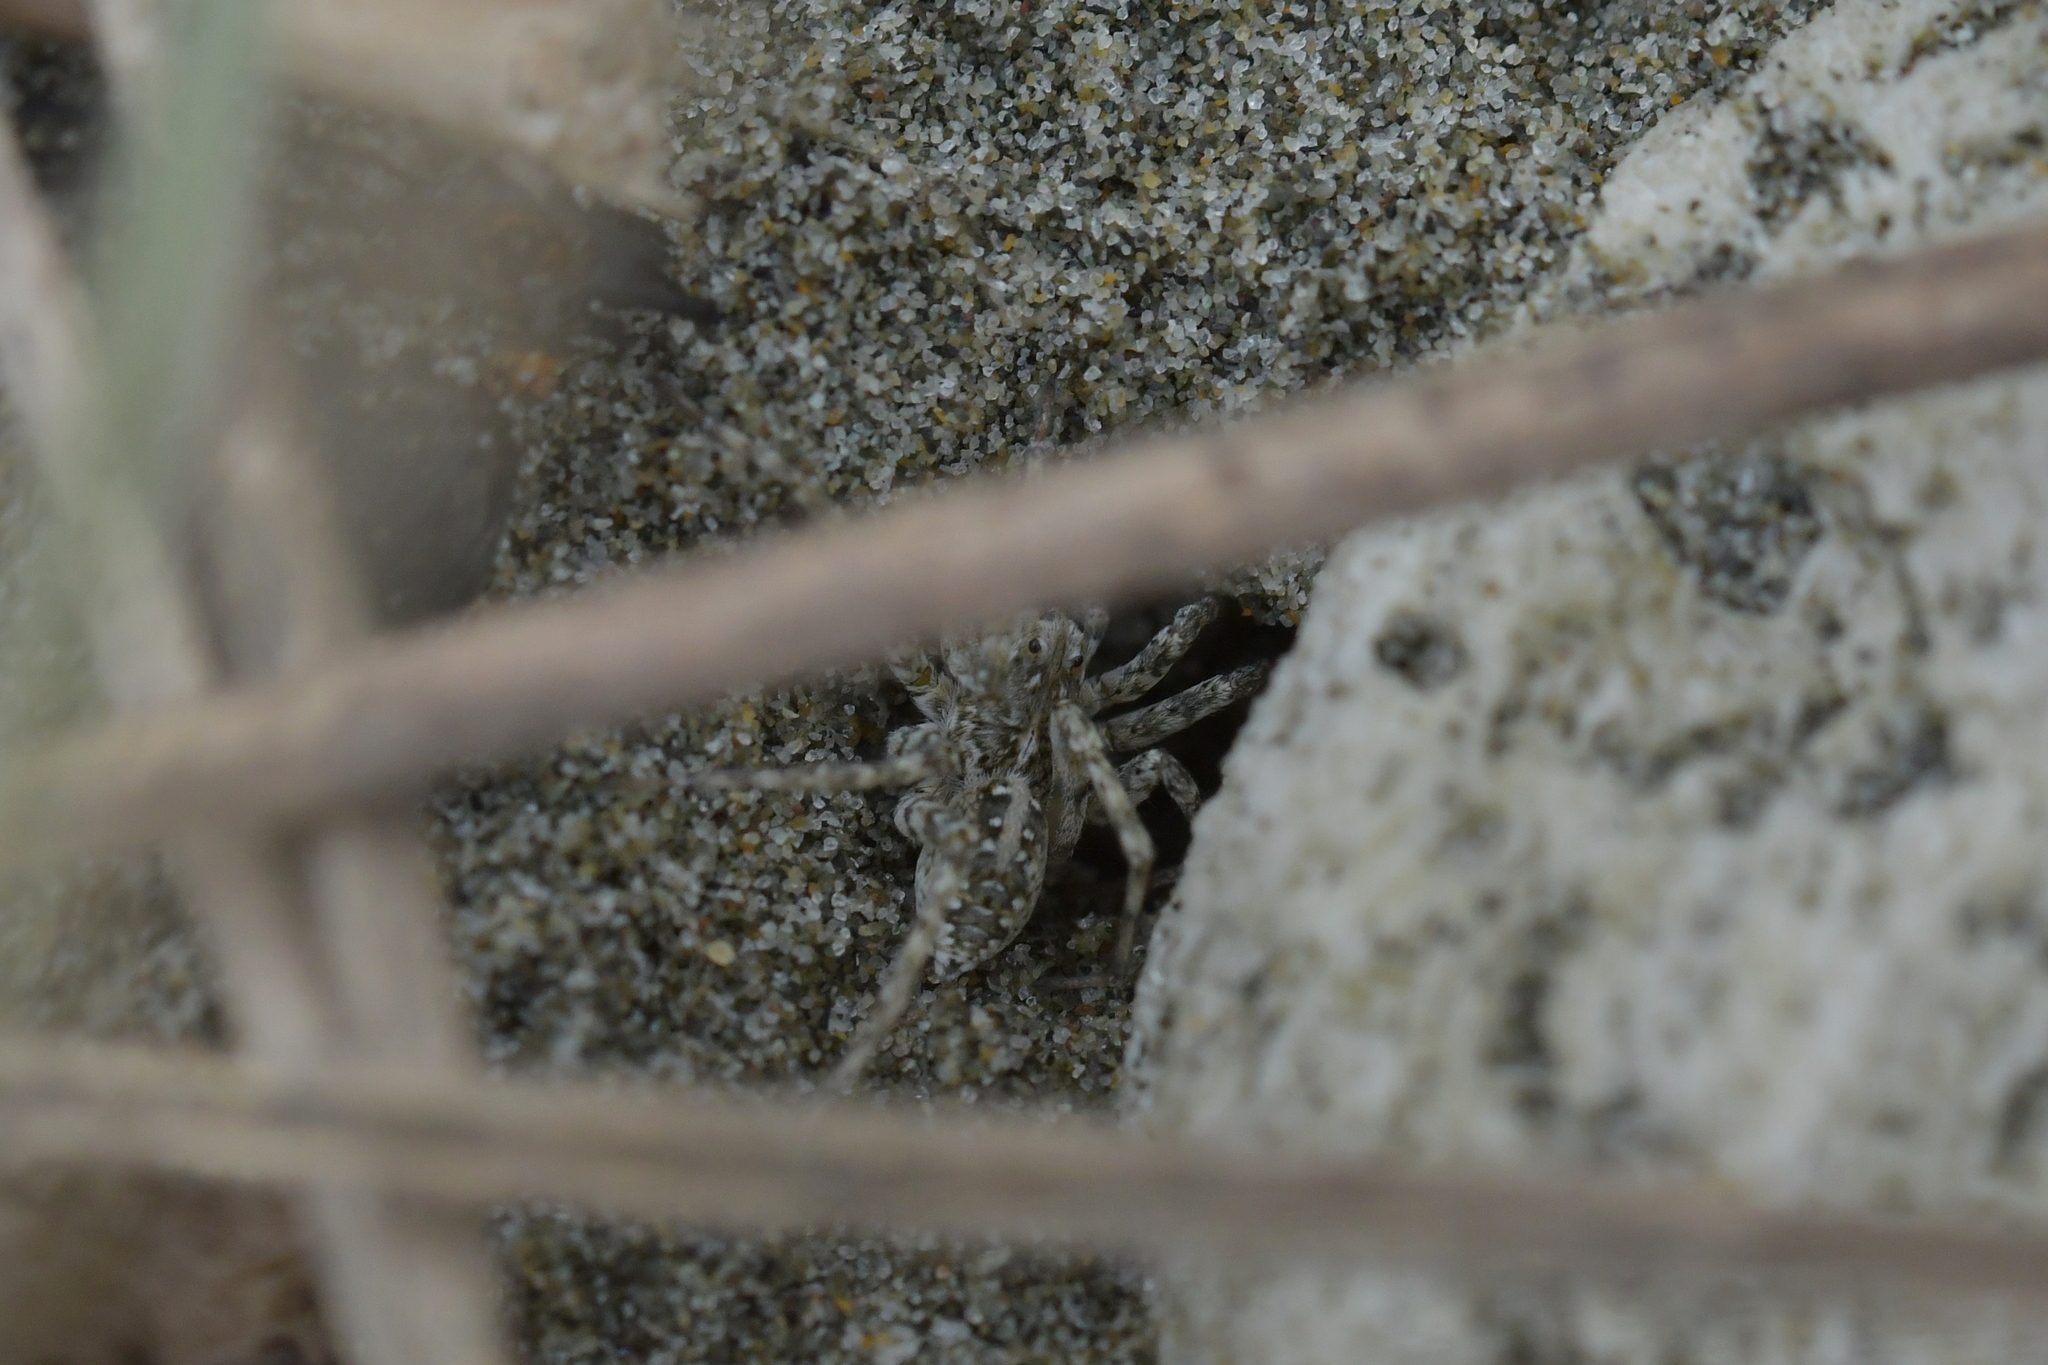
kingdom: Animalia
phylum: Arthropoda
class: Arachnida
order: Araneae
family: Lycosidae
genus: Anoteropsis
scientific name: Anoteropsis litoralis
